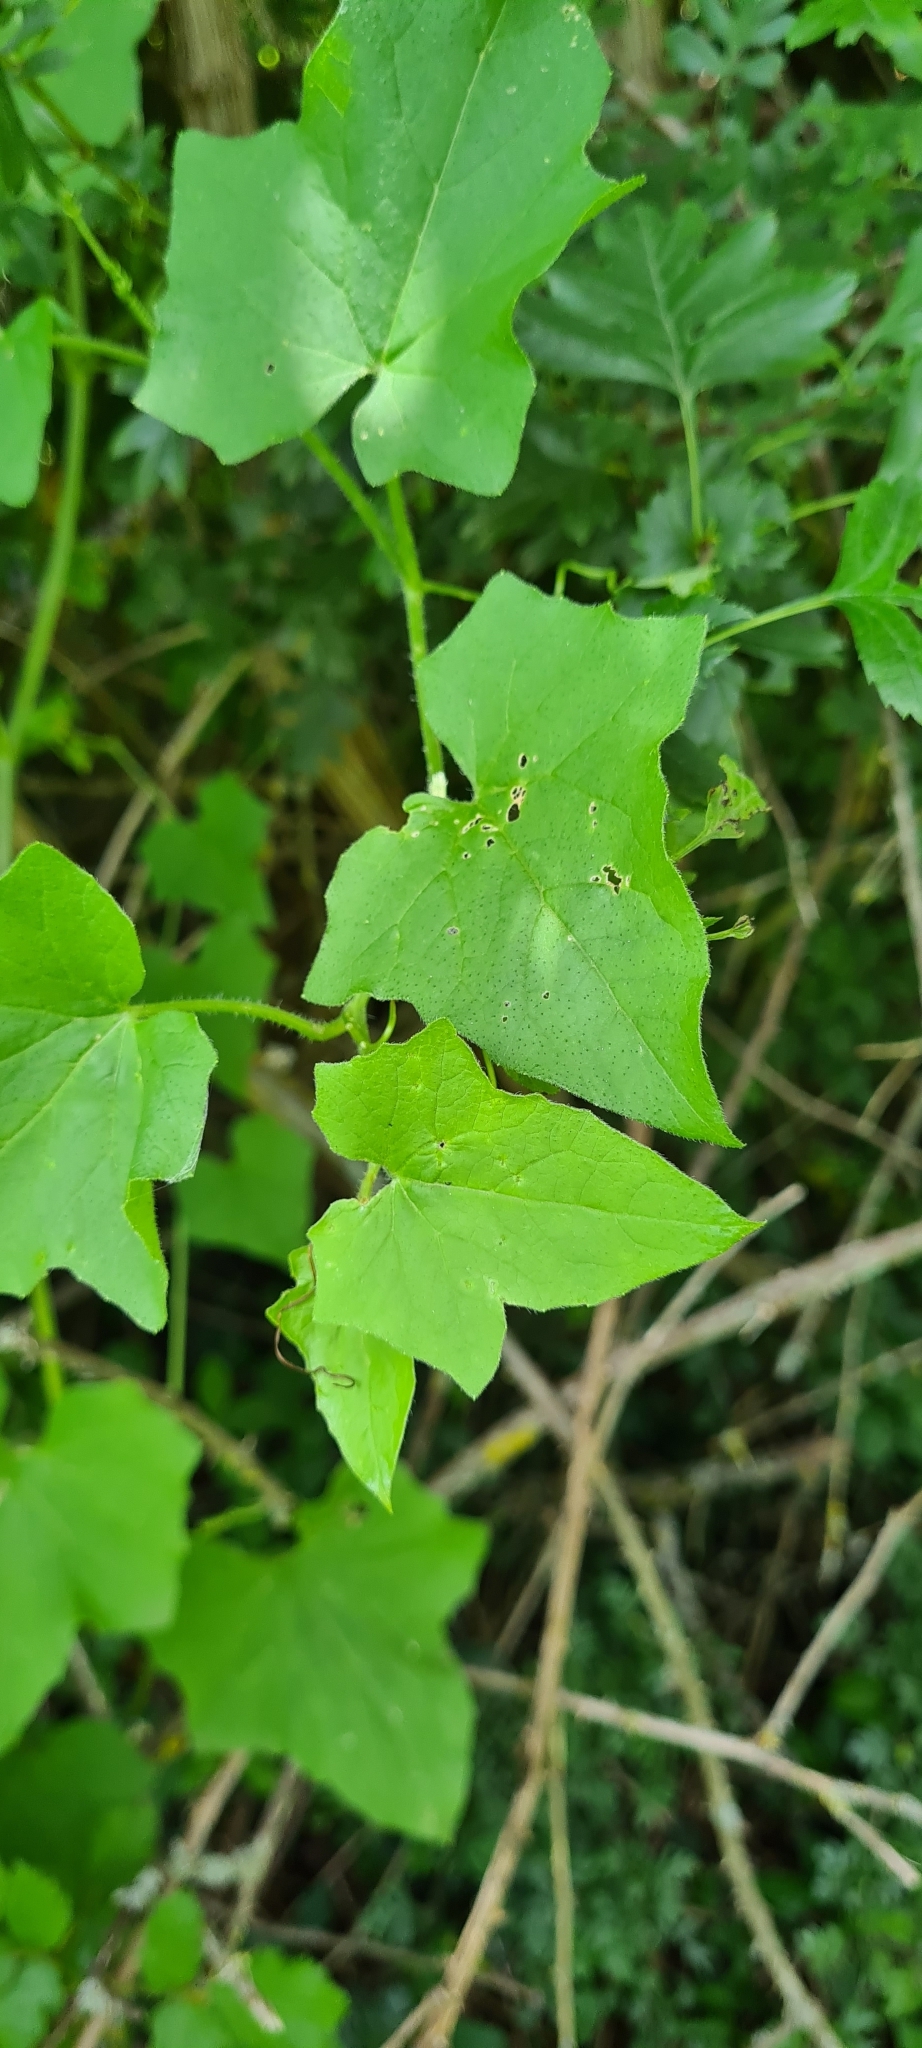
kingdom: Plantae
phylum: Tracheophyta
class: Magnoliopsida
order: Cucurbitales
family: Cucurbitaceae
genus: Bryonia
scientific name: Bryonia cretica
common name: Cretan bryony
